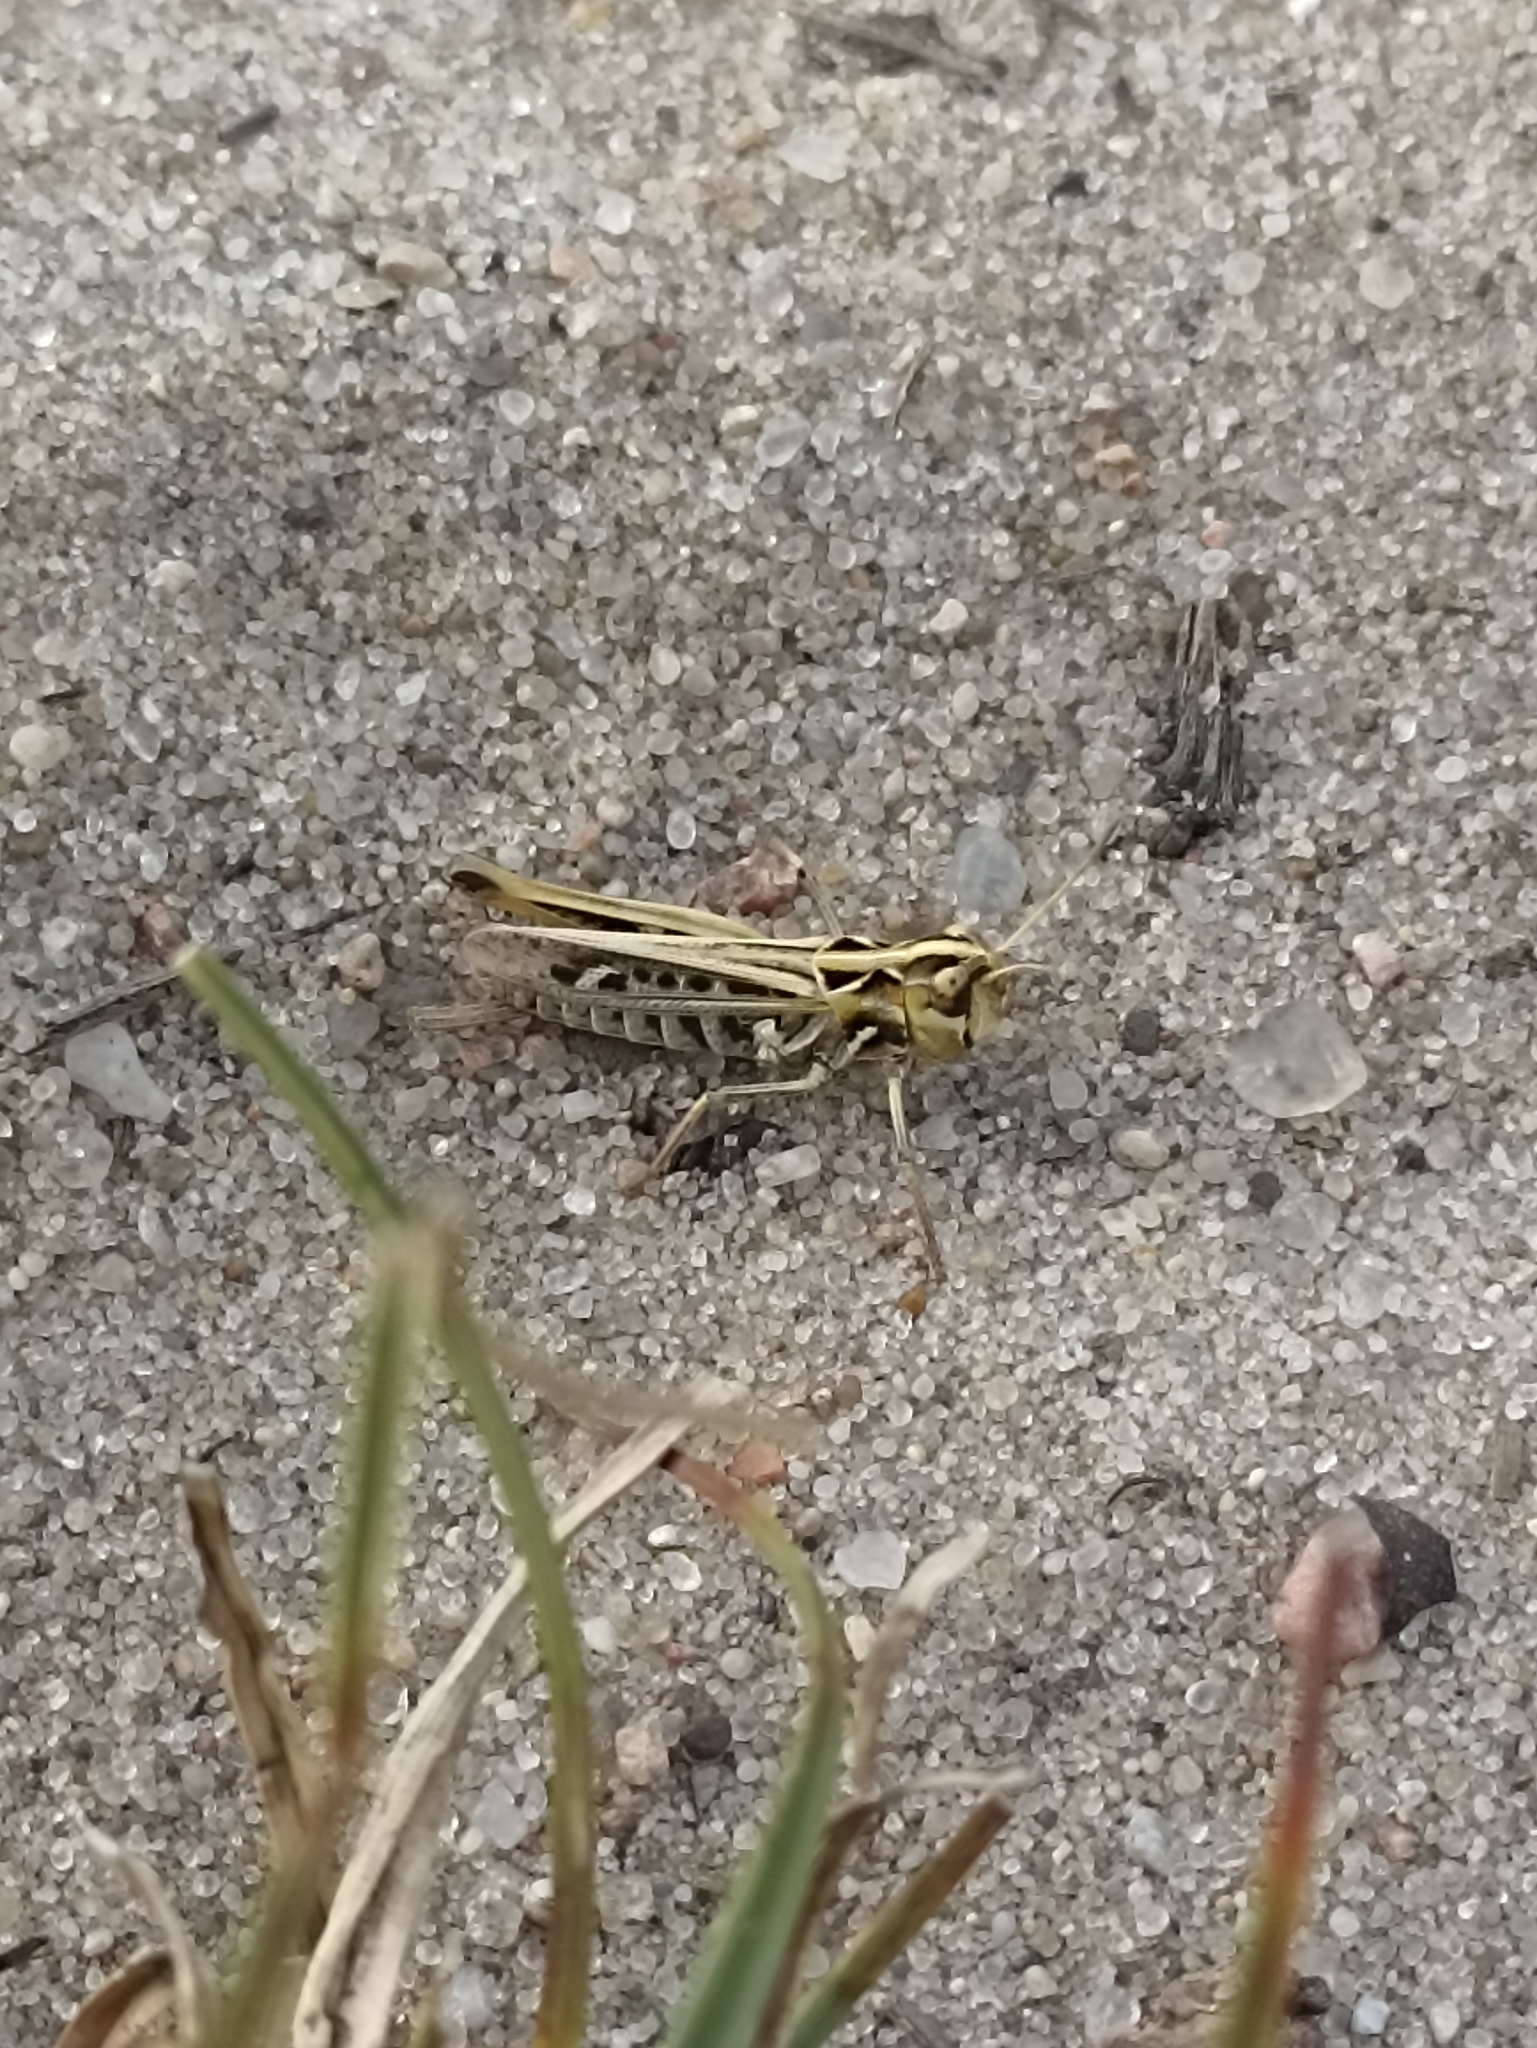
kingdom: Animalia
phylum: Arthropoda
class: Insecta
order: Orthoptera
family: Acrididae
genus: Myrmeleotettix
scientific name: Myrmeleotettix maculatus
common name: Mottled grasshopper
